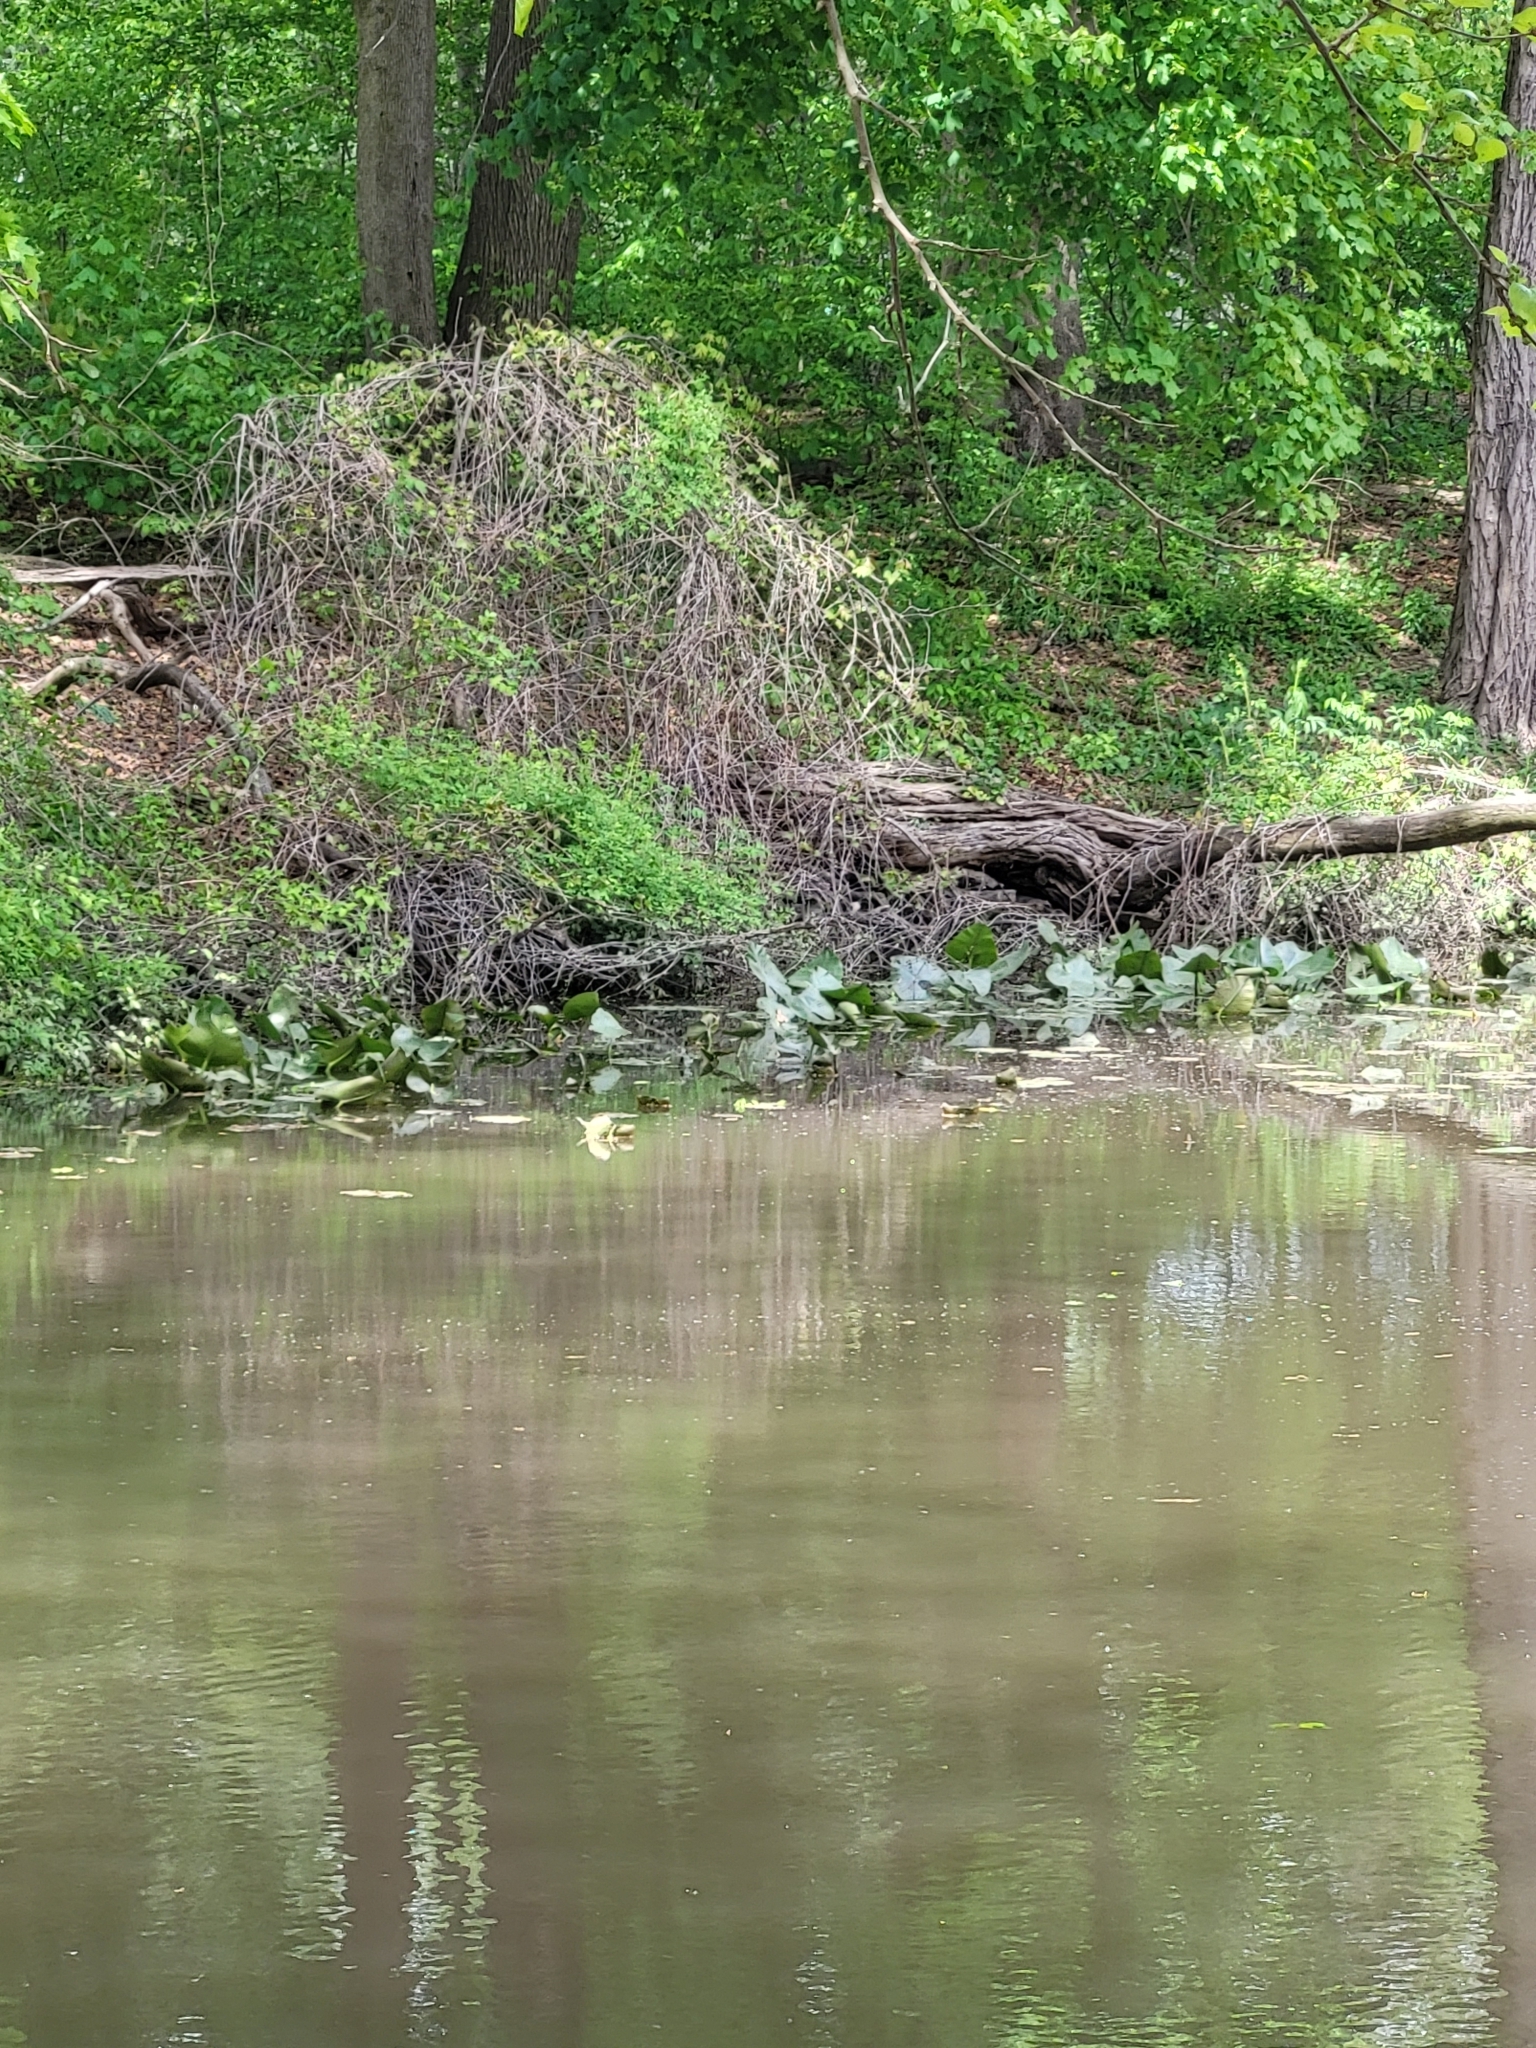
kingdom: Plantae
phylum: Tracheophyta
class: Magnoliopsida
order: Nymphaeales
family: Nymphaeaceae
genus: Nuphar
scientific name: Nuphar advena
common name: Spatter-dock
